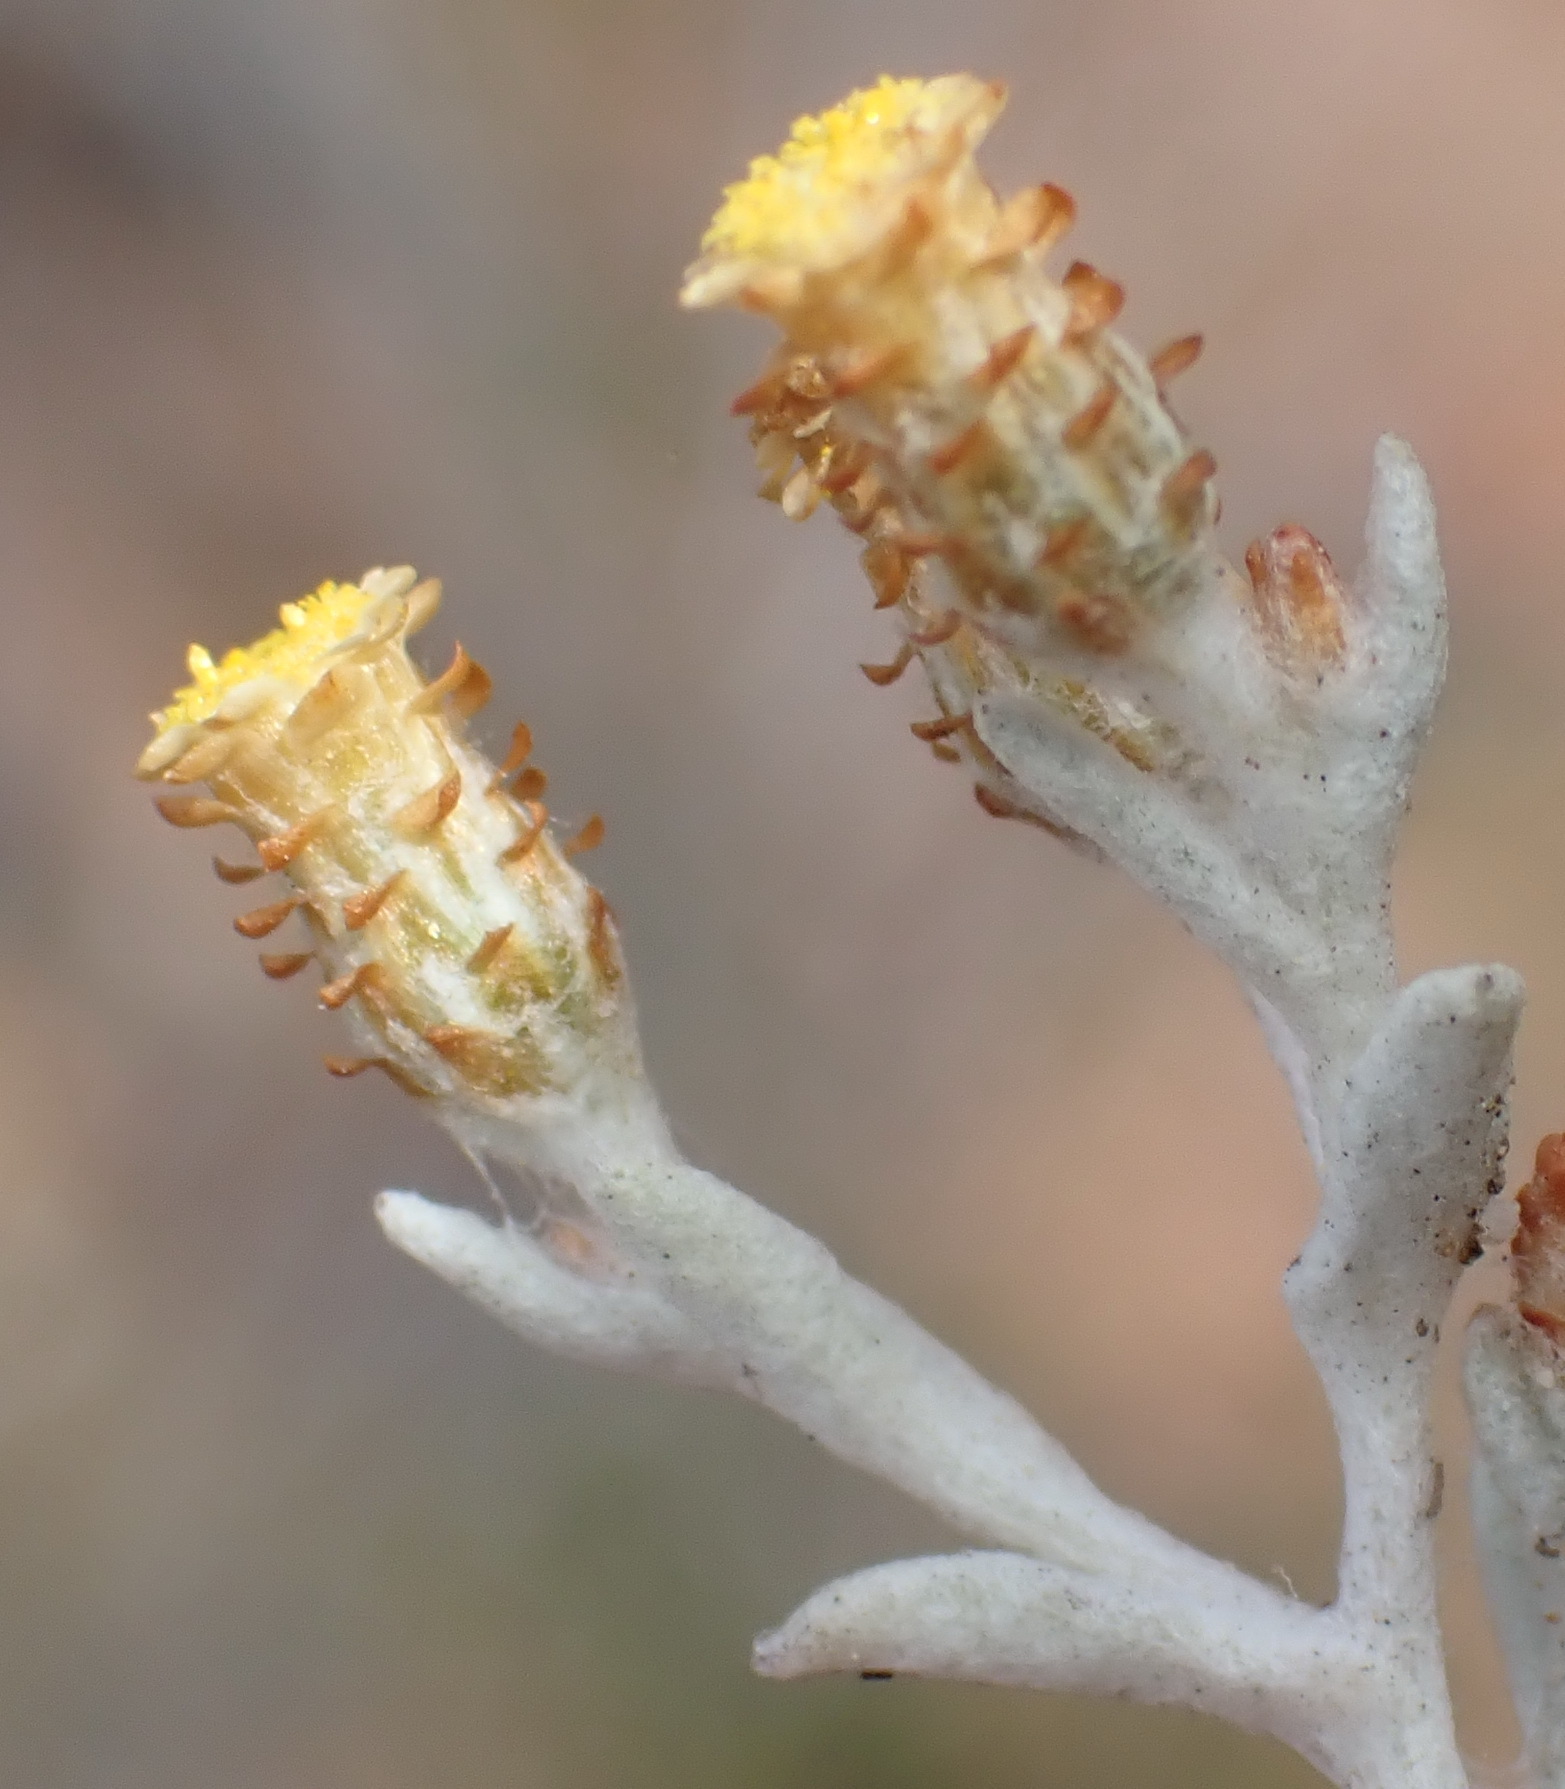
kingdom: Plantae
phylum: Tracheophyta
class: Magnoliopsida
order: Asterales
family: Asteraceae
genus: Helichrysum
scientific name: Helichrysum cylindriflorum
